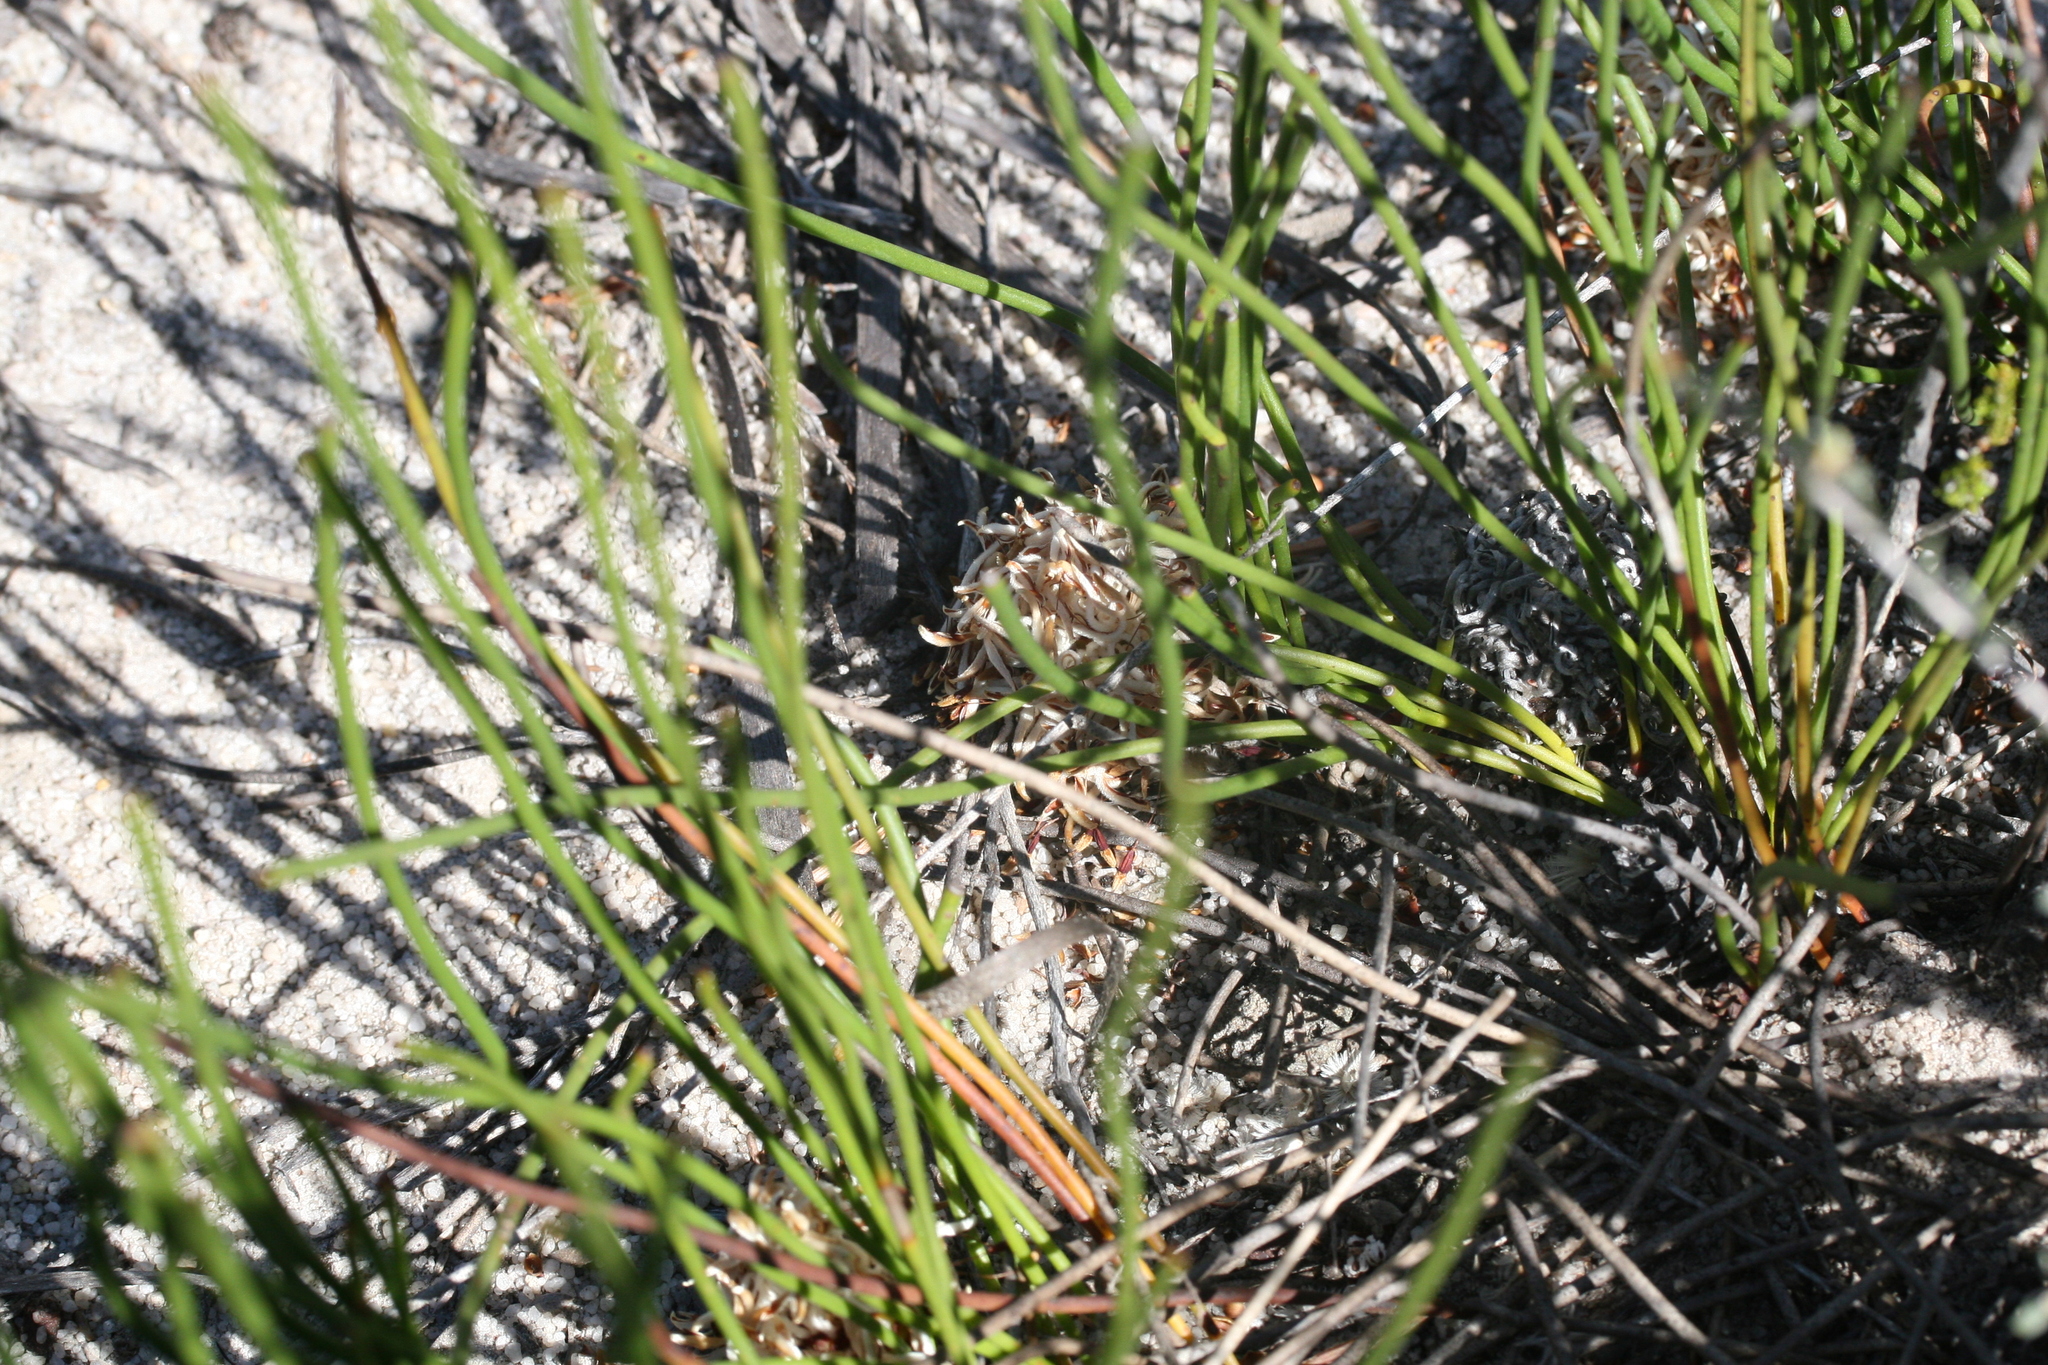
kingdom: Plantae
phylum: Tracheophyta
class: Magnoliopsida
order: Proteales
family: Proteaceae
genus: Petrophile
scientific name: Petrophile prostrata
